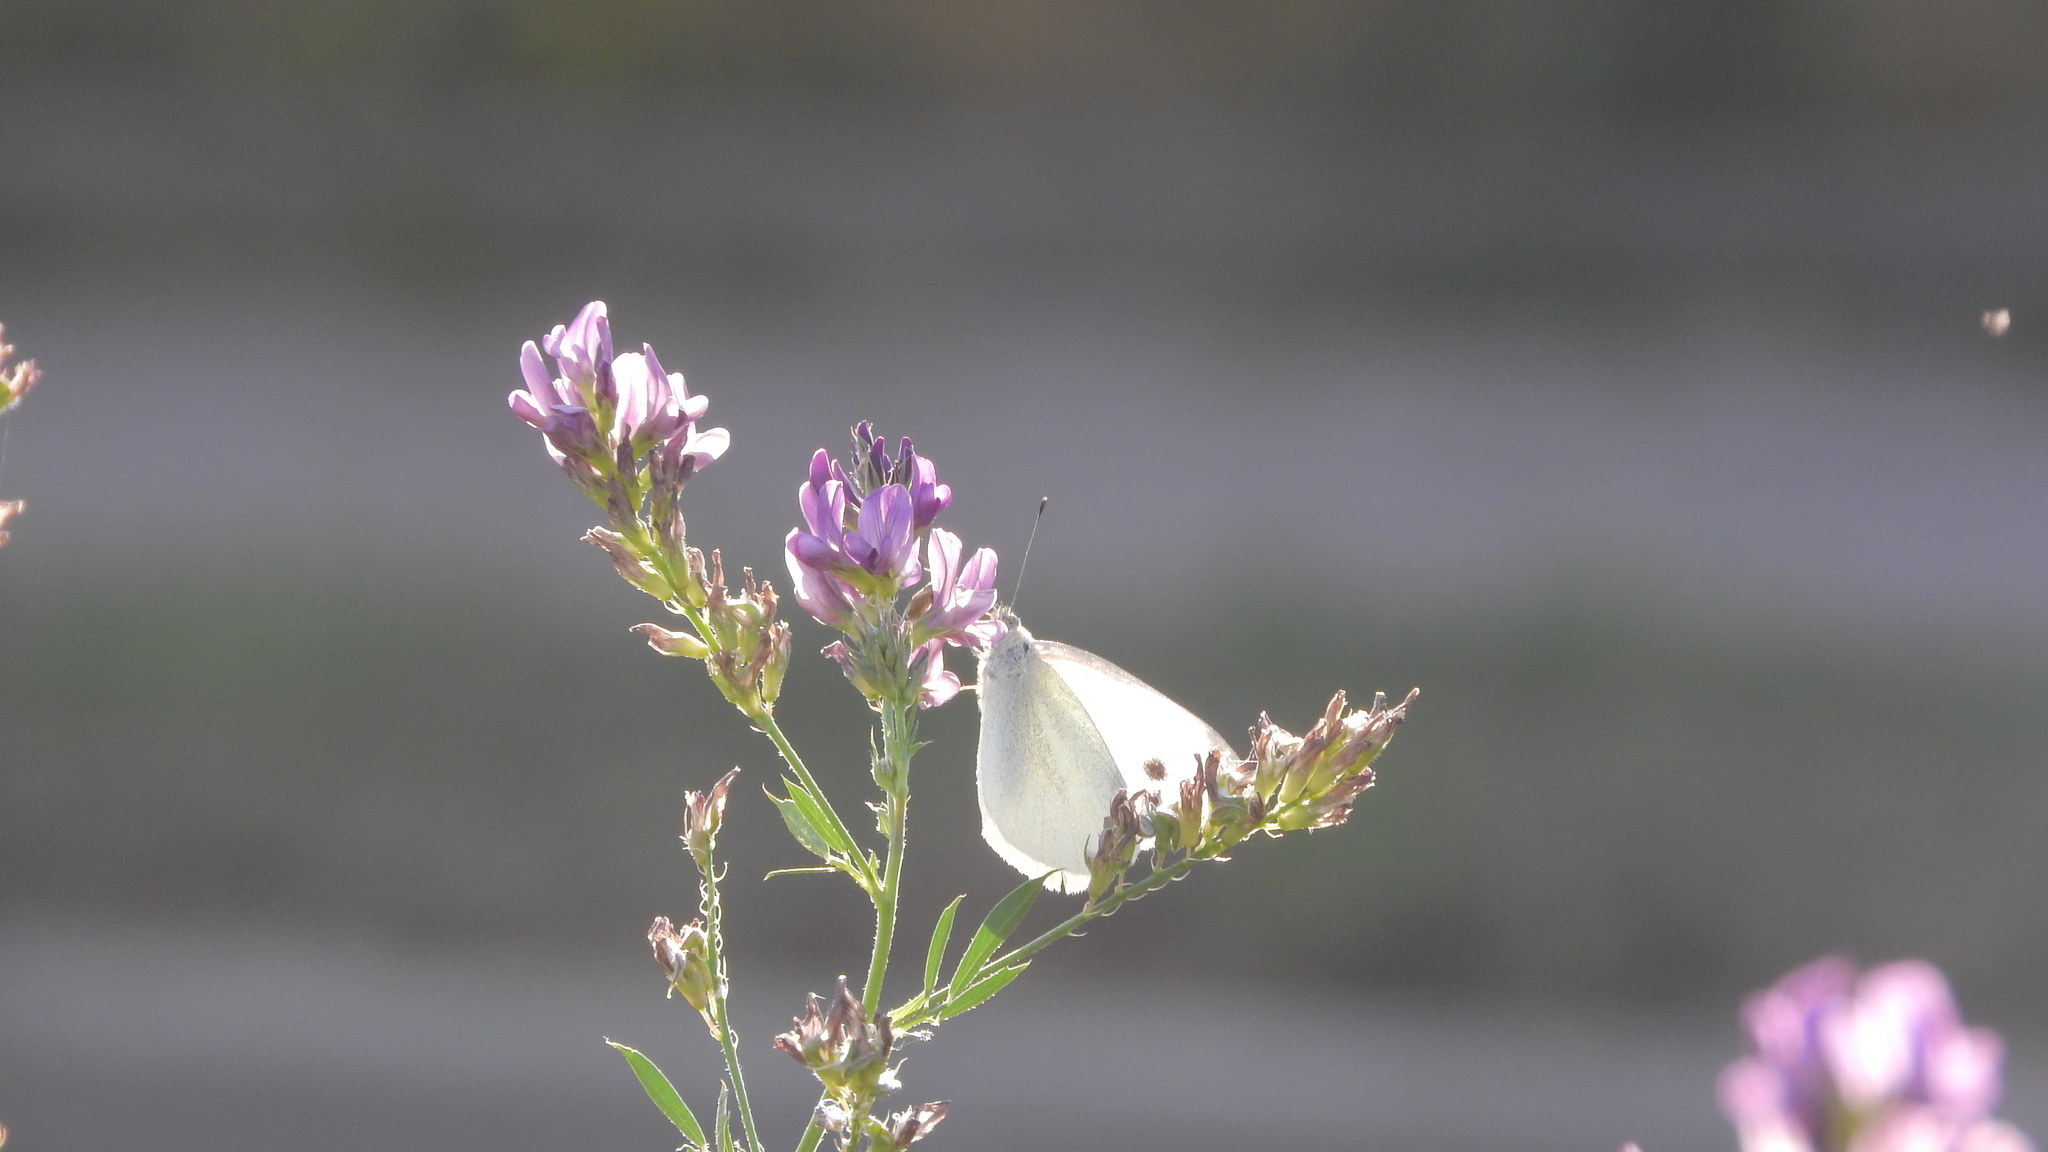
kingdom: Animalia
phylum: Arthropoda
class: Insecta
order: Lepidoptera
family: Pieridae
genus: Pieris
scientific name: Pieris rapae
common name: Small white
